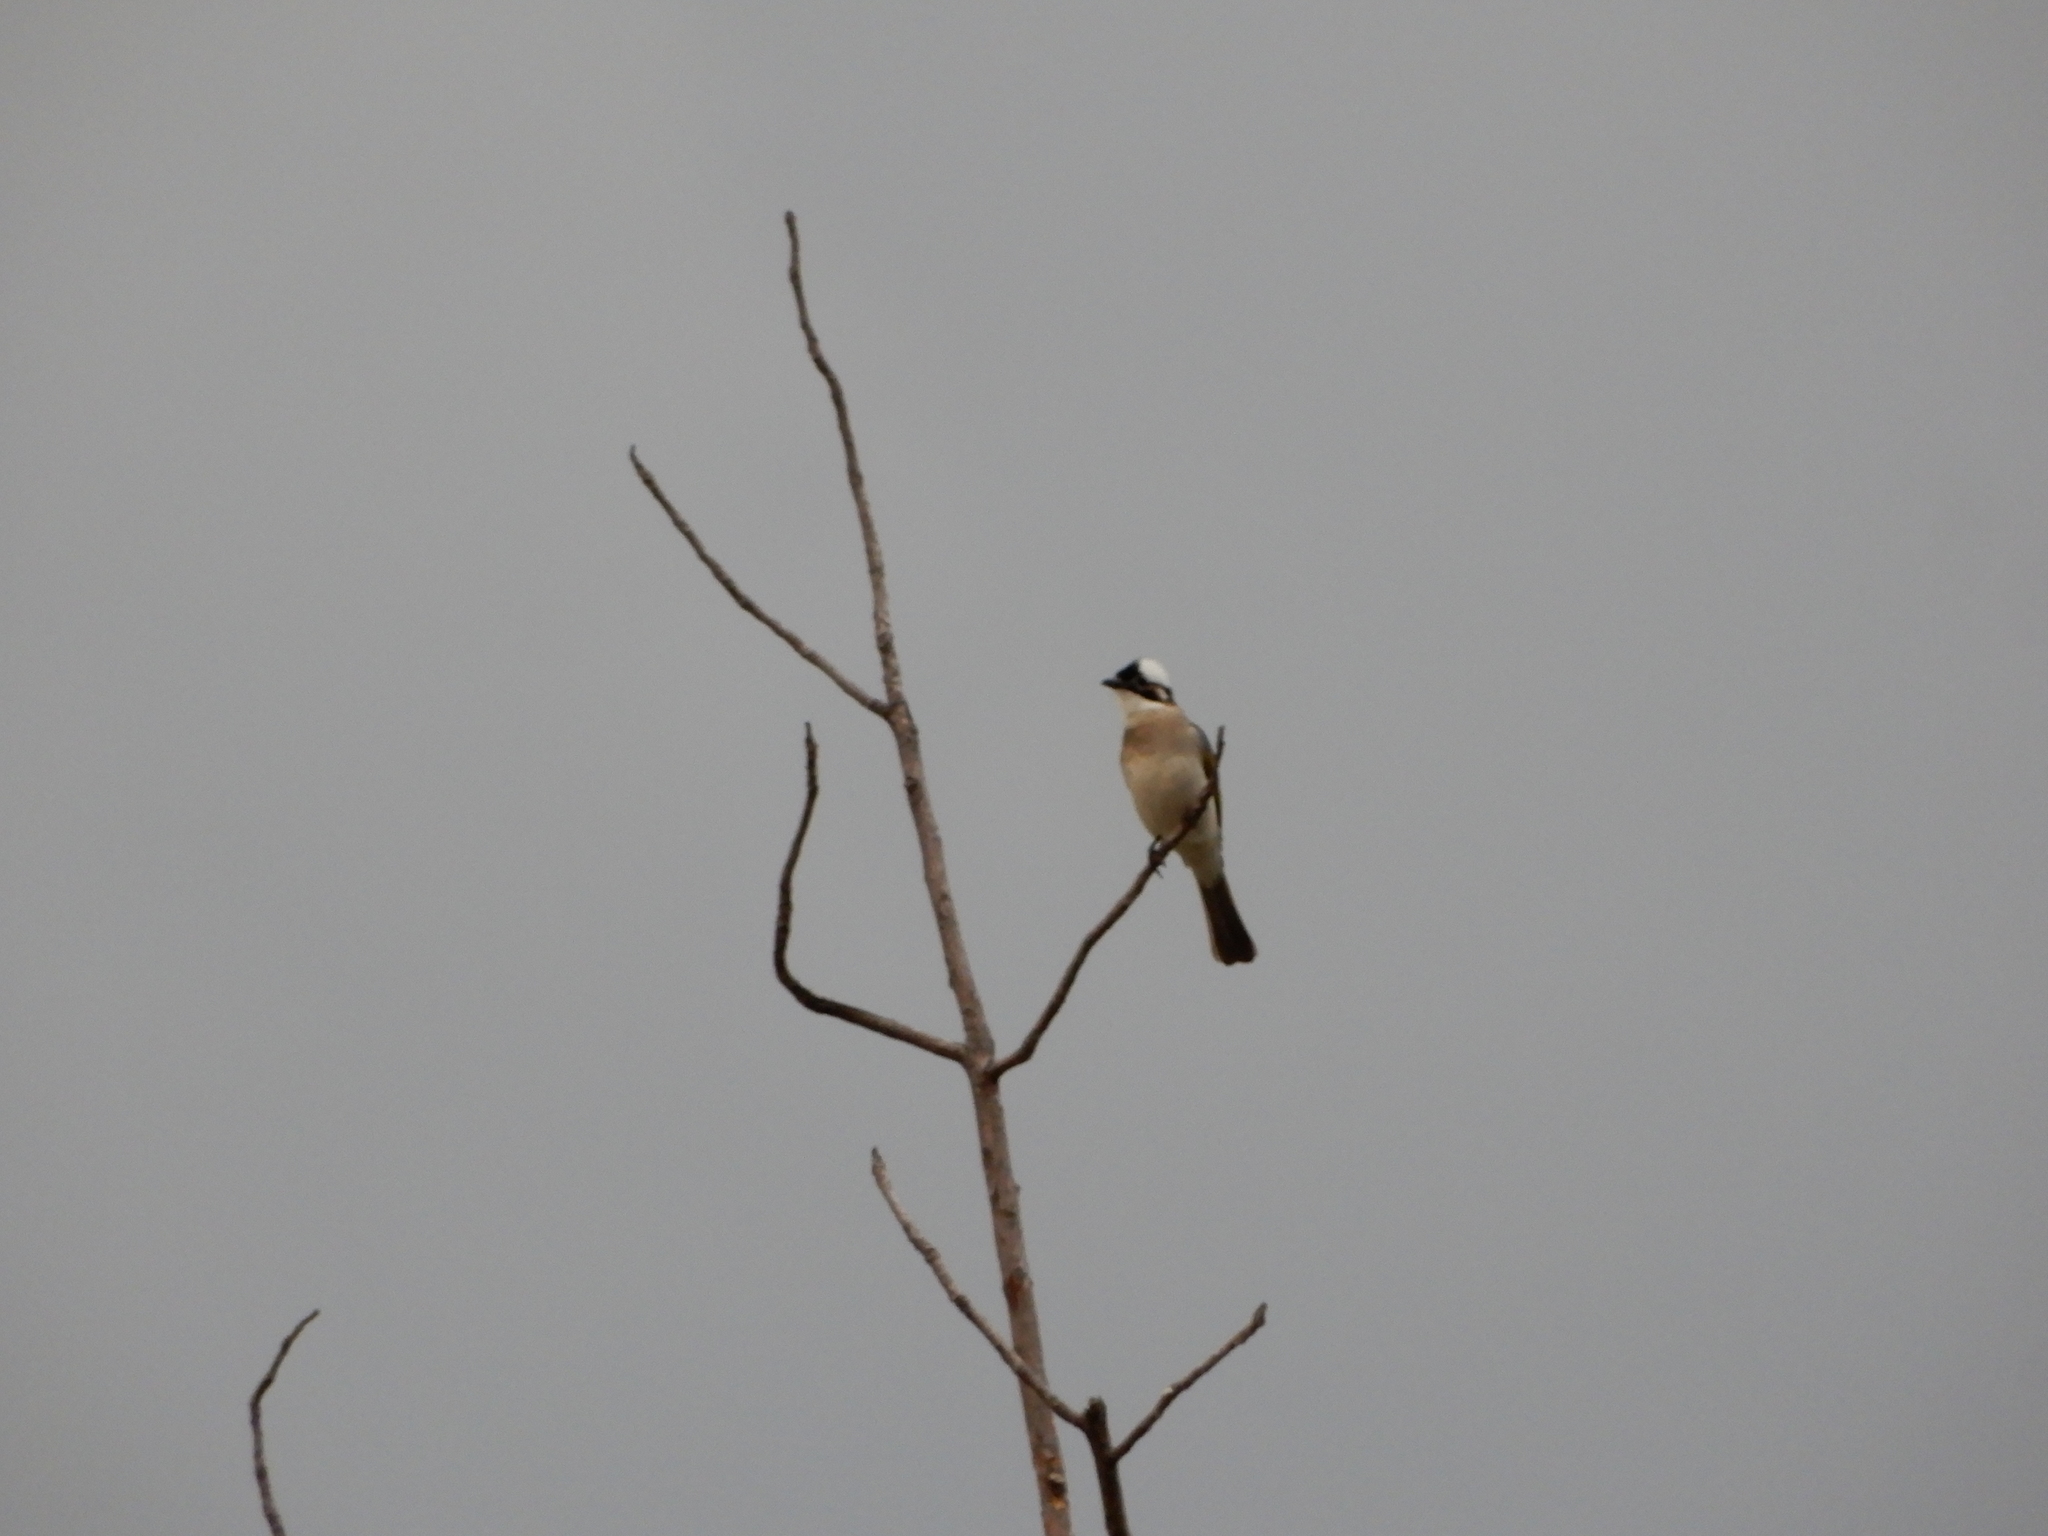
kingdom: Animalia
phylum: Chordata
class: Aves
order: Passeriformes
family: Pycnonotidae
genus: Pycnonotus
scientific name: Pycnonotus sinensis
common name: Light-vented bulbul
